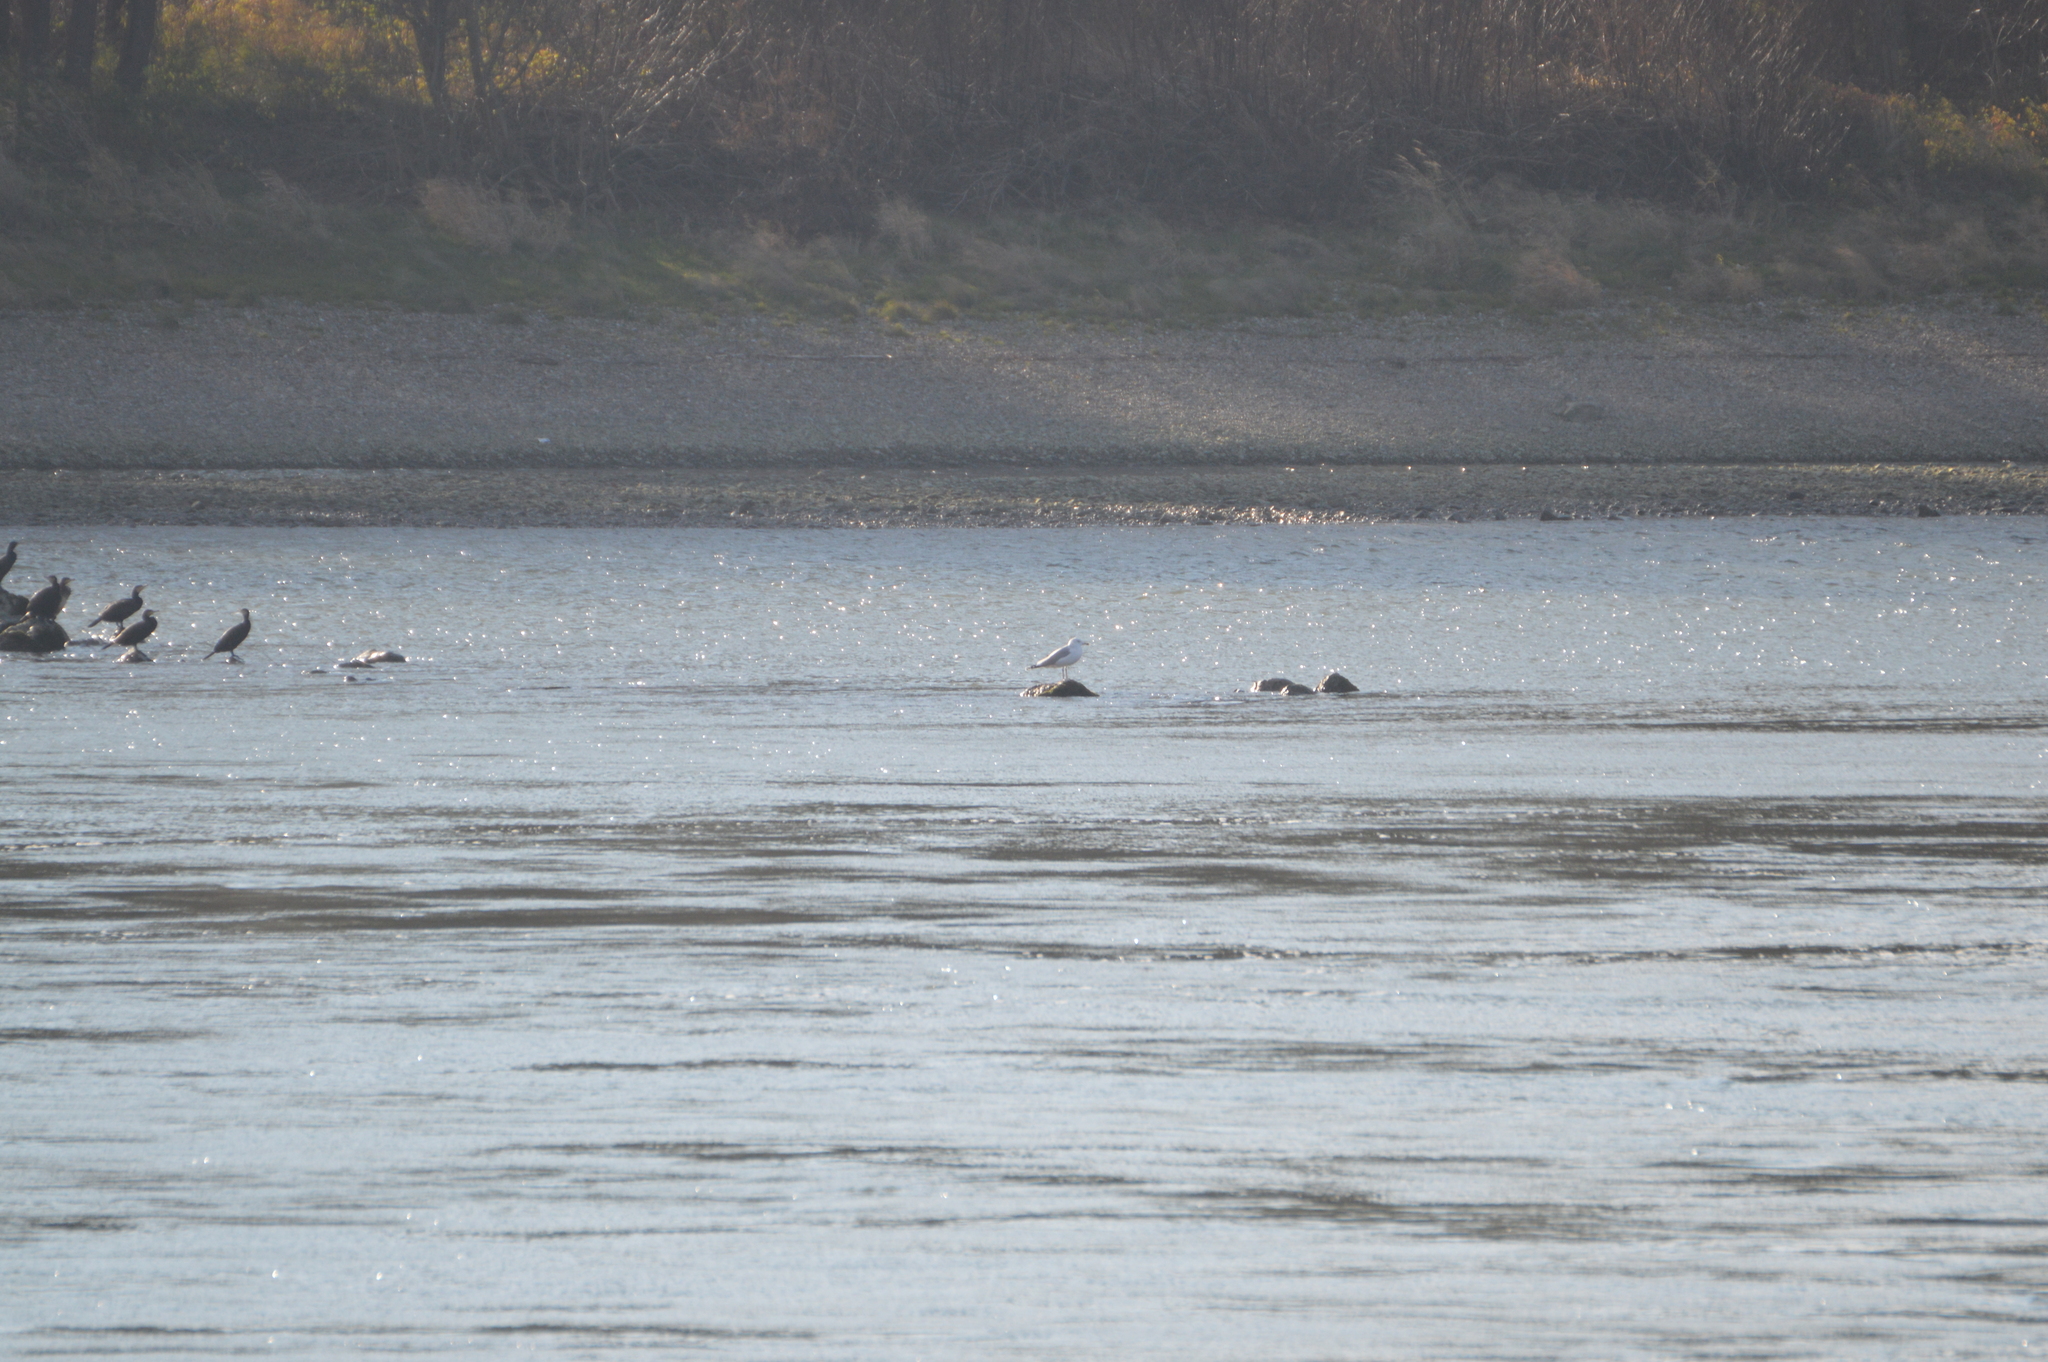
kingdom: Animalia
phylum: Chordata
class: Aves
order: Suliformes
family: Phalacrocoracidae
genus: Phalacrocorax
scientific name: Phalacrocorax carbo
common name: Great cormorant
